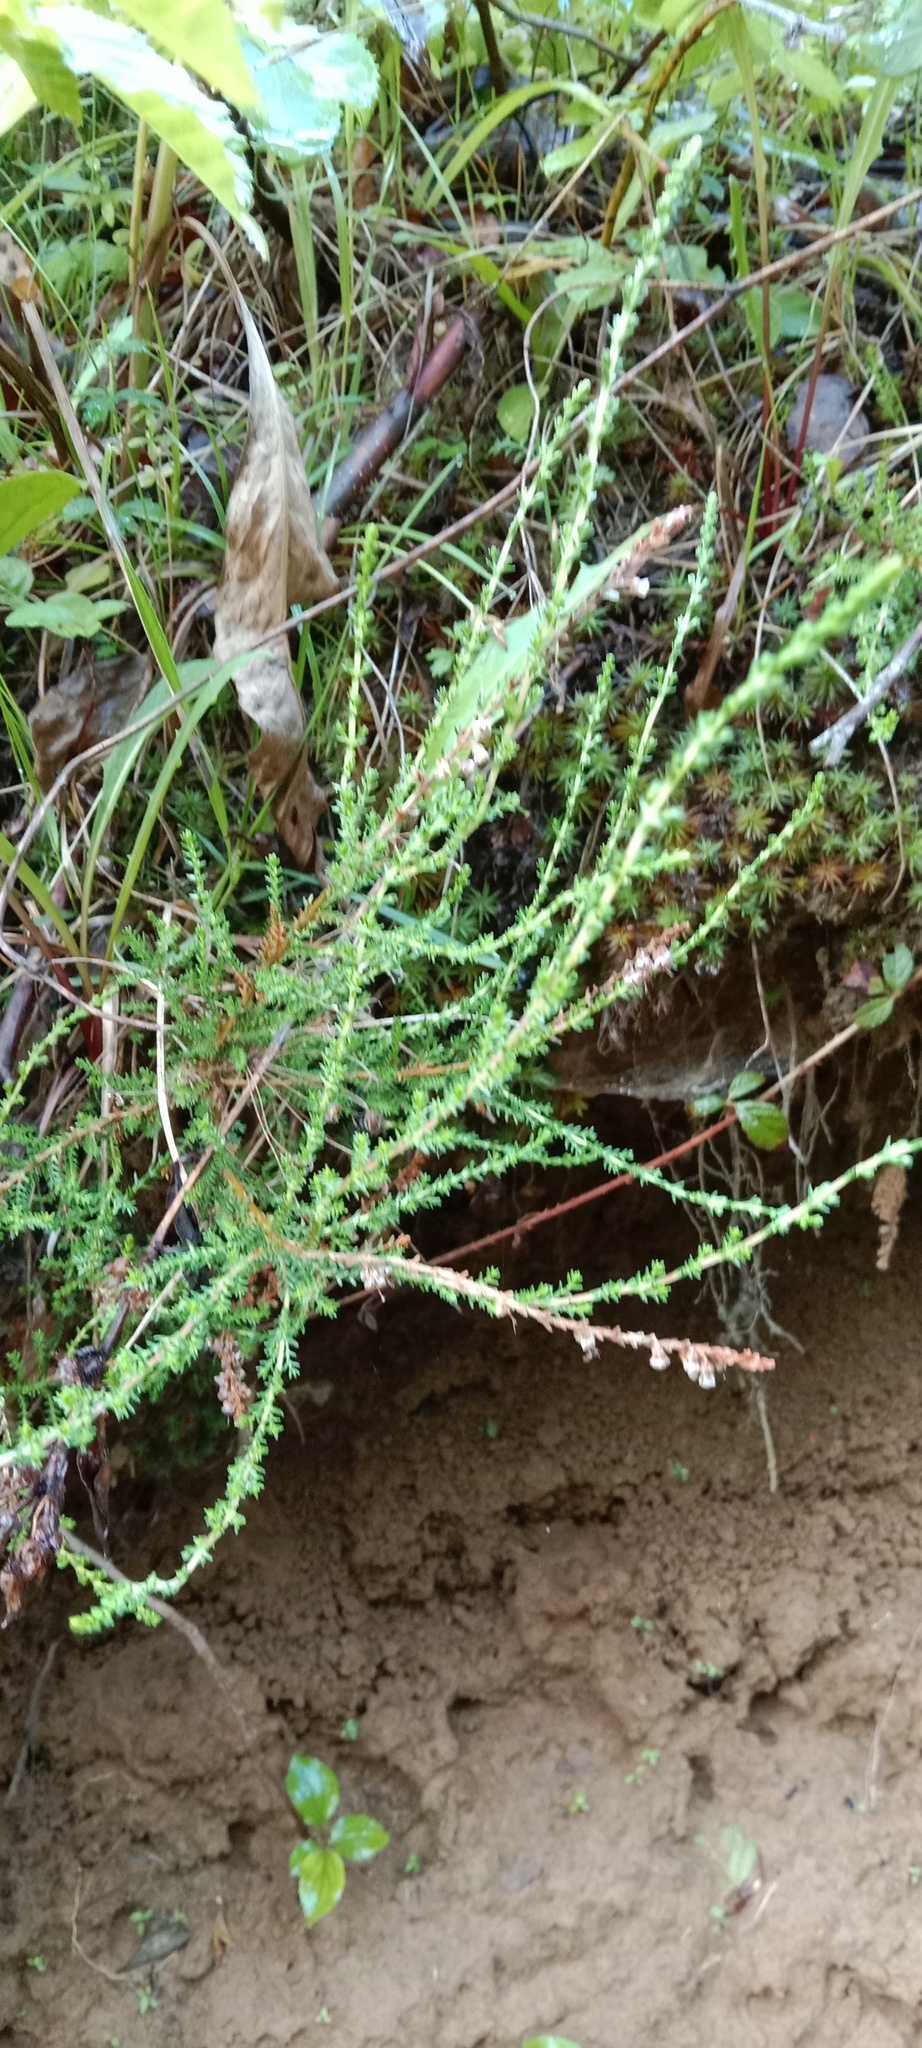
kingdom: Plantae
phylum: Tracheophyta
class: Magnoliopsida
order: Ericales
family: Ericaceae
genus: Calluna
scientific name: Calluna vulgaris
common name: Heather
